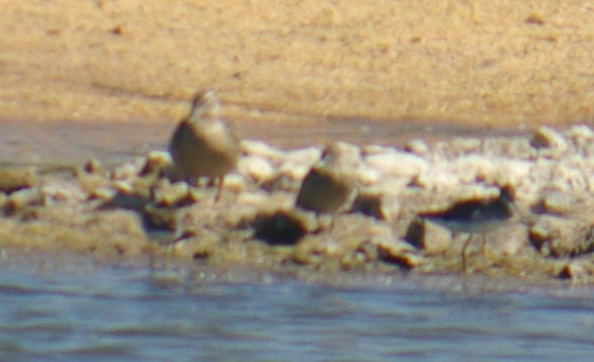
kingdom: Animalia
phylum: Chordata
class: Aves
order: Charadriiformes
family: Scolopacidae
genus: Tringa
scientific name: Tringa melanoleuca
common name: Greater yellowlegs
